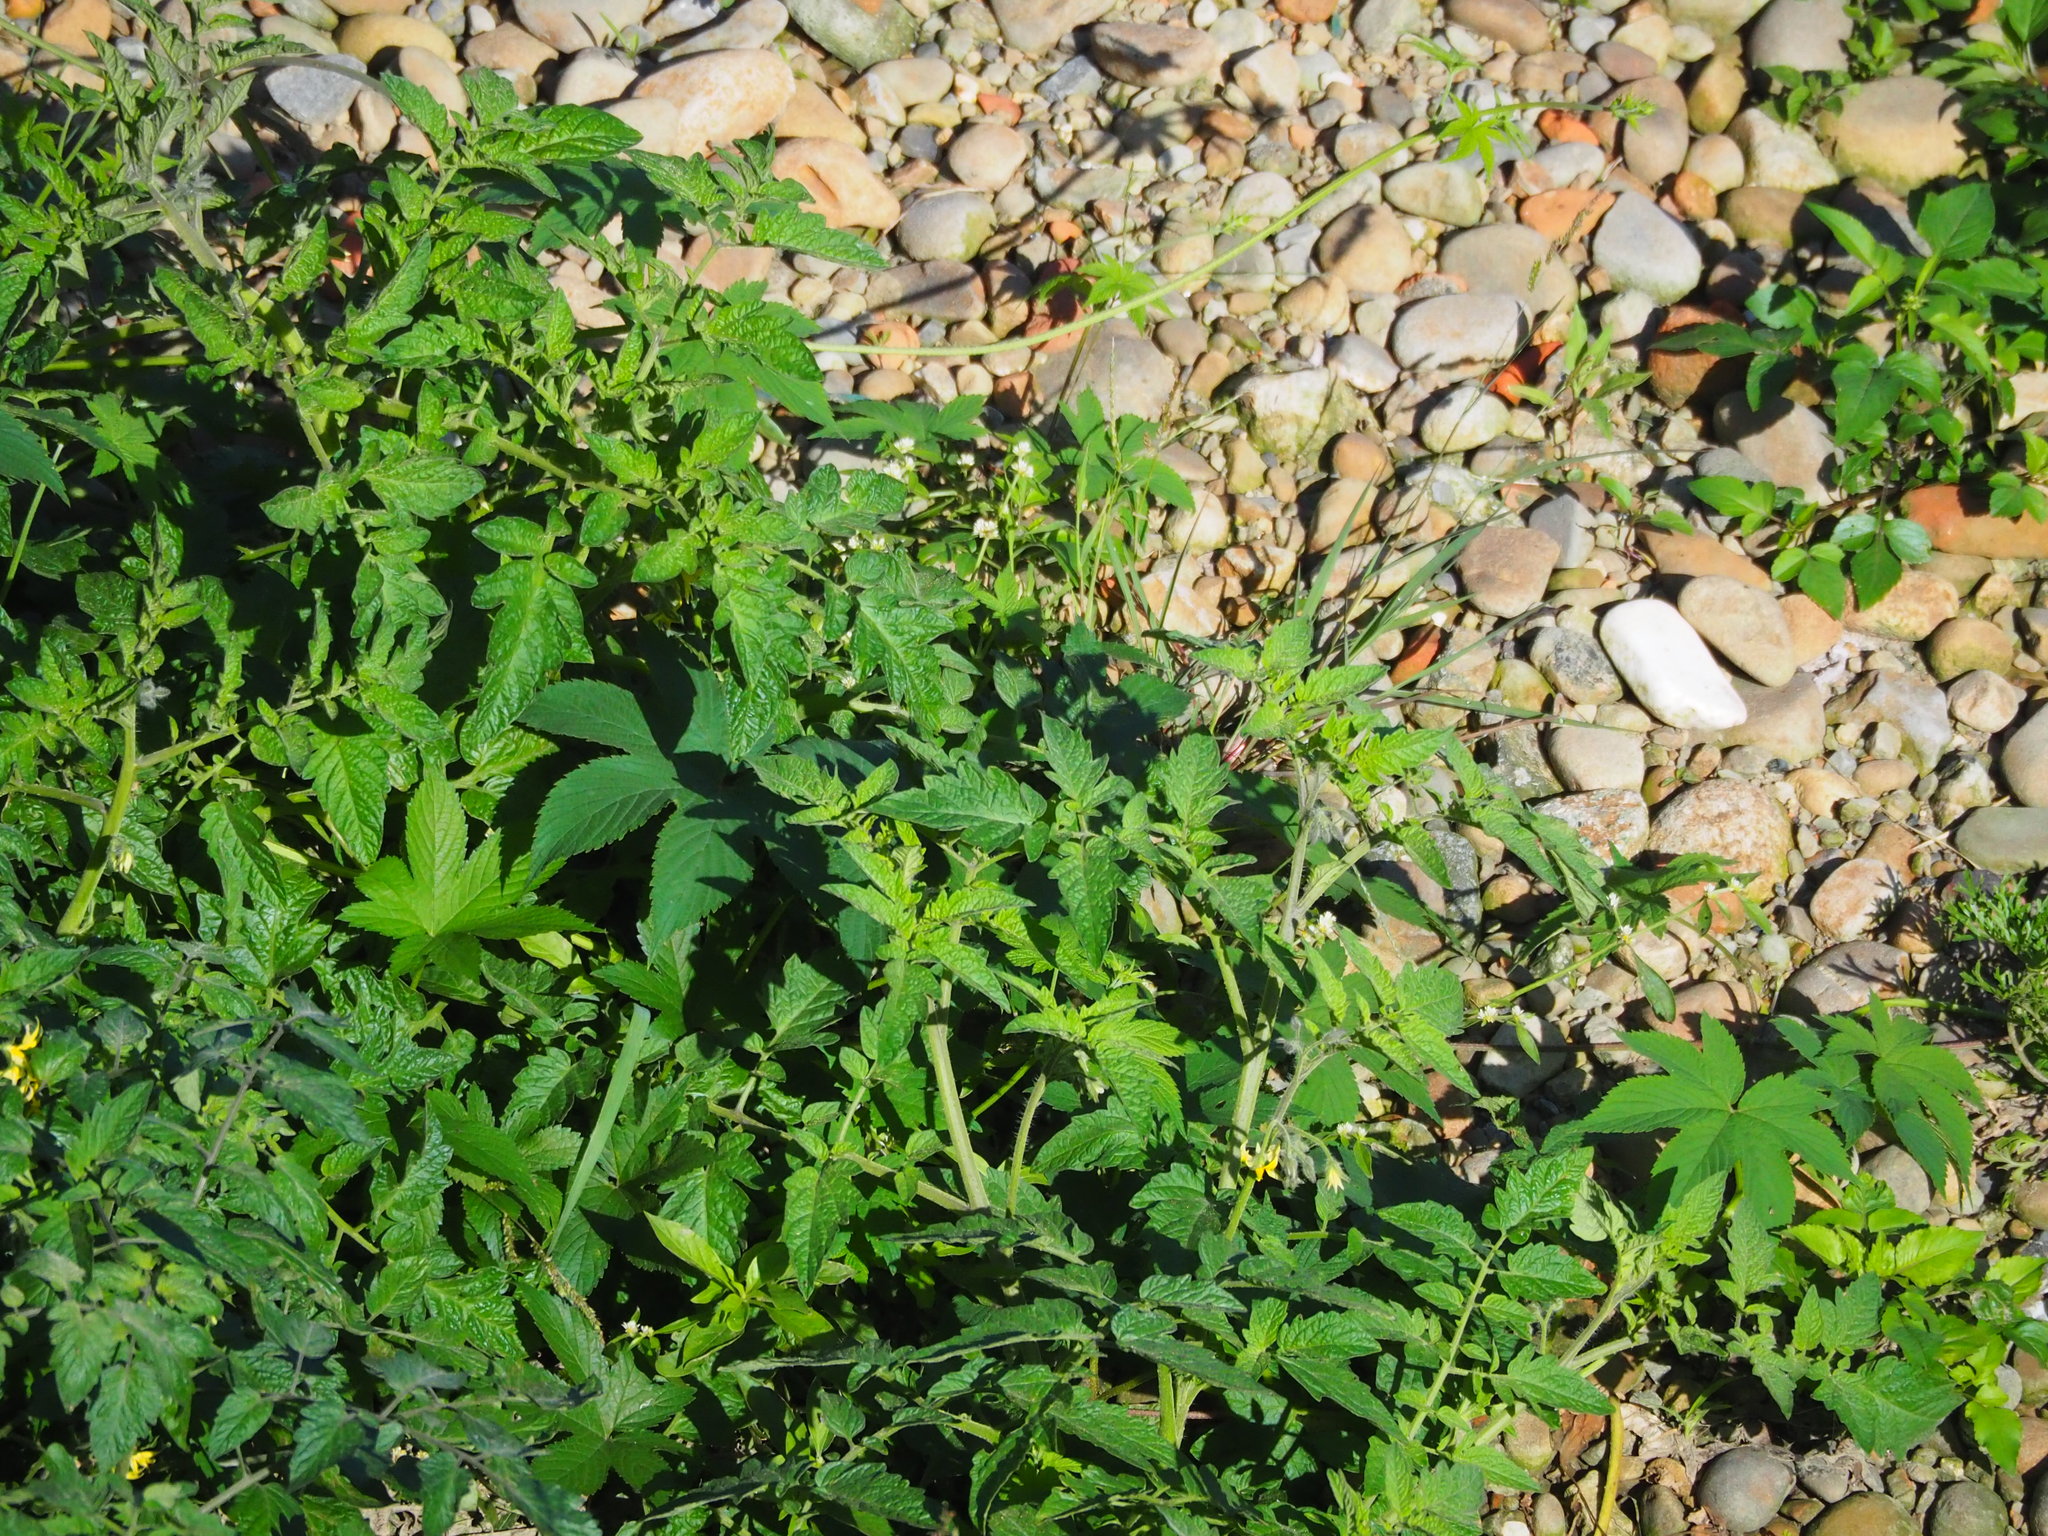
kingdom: Plantae
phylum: Tracheophyta
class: Magnoliopsida
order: Solanales
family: Solanaceae
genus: Solanum
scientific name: Solanum lycopersicum
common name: Garden tomato
